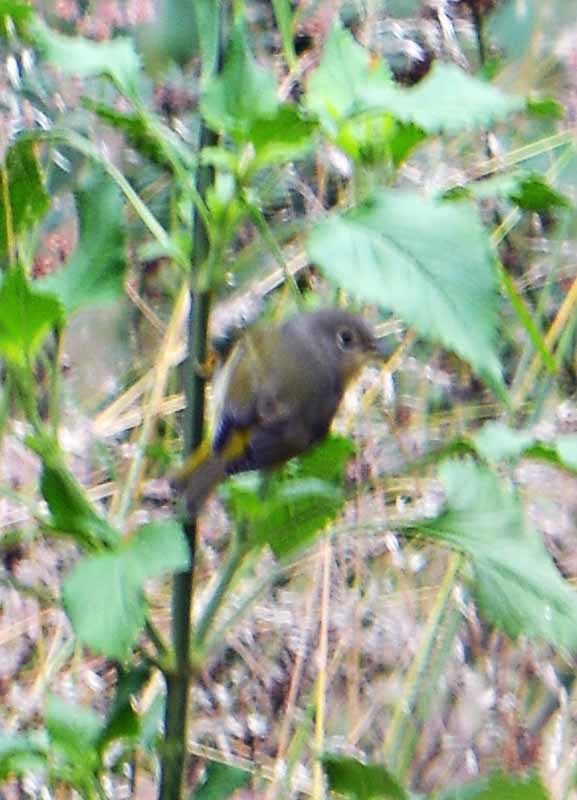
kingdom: Animalia
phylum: Chordata
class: Aves
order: Passeriformes
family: Parulidae
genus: Leiothlypis
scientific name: Leiothlypis ruficapilla
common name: Nashville warbler
